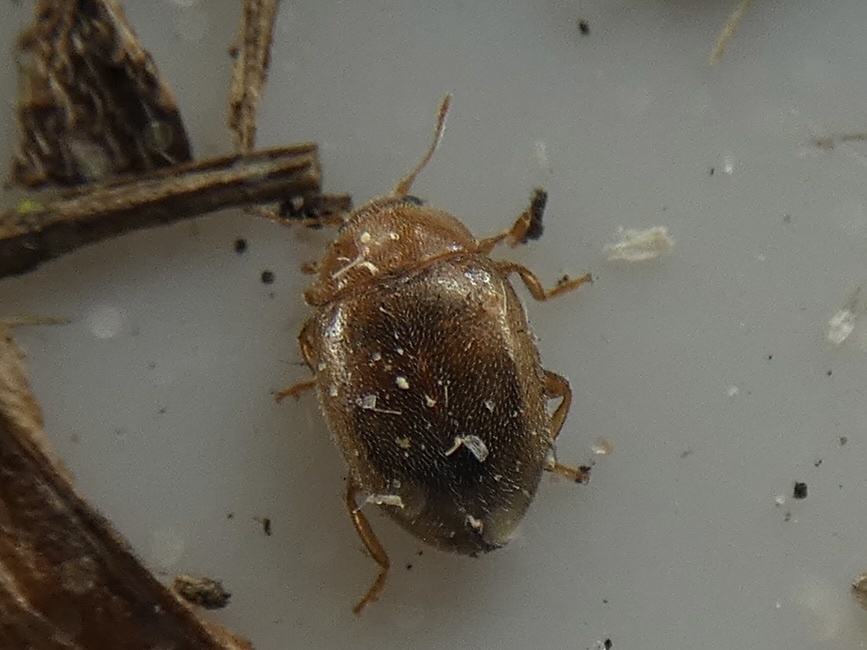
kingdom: Animalia
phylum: Arthropoda
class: Insecta
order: Coleoptera
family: Coccinellidae
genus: Rhyzobius
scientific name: Rhyzobius litura
